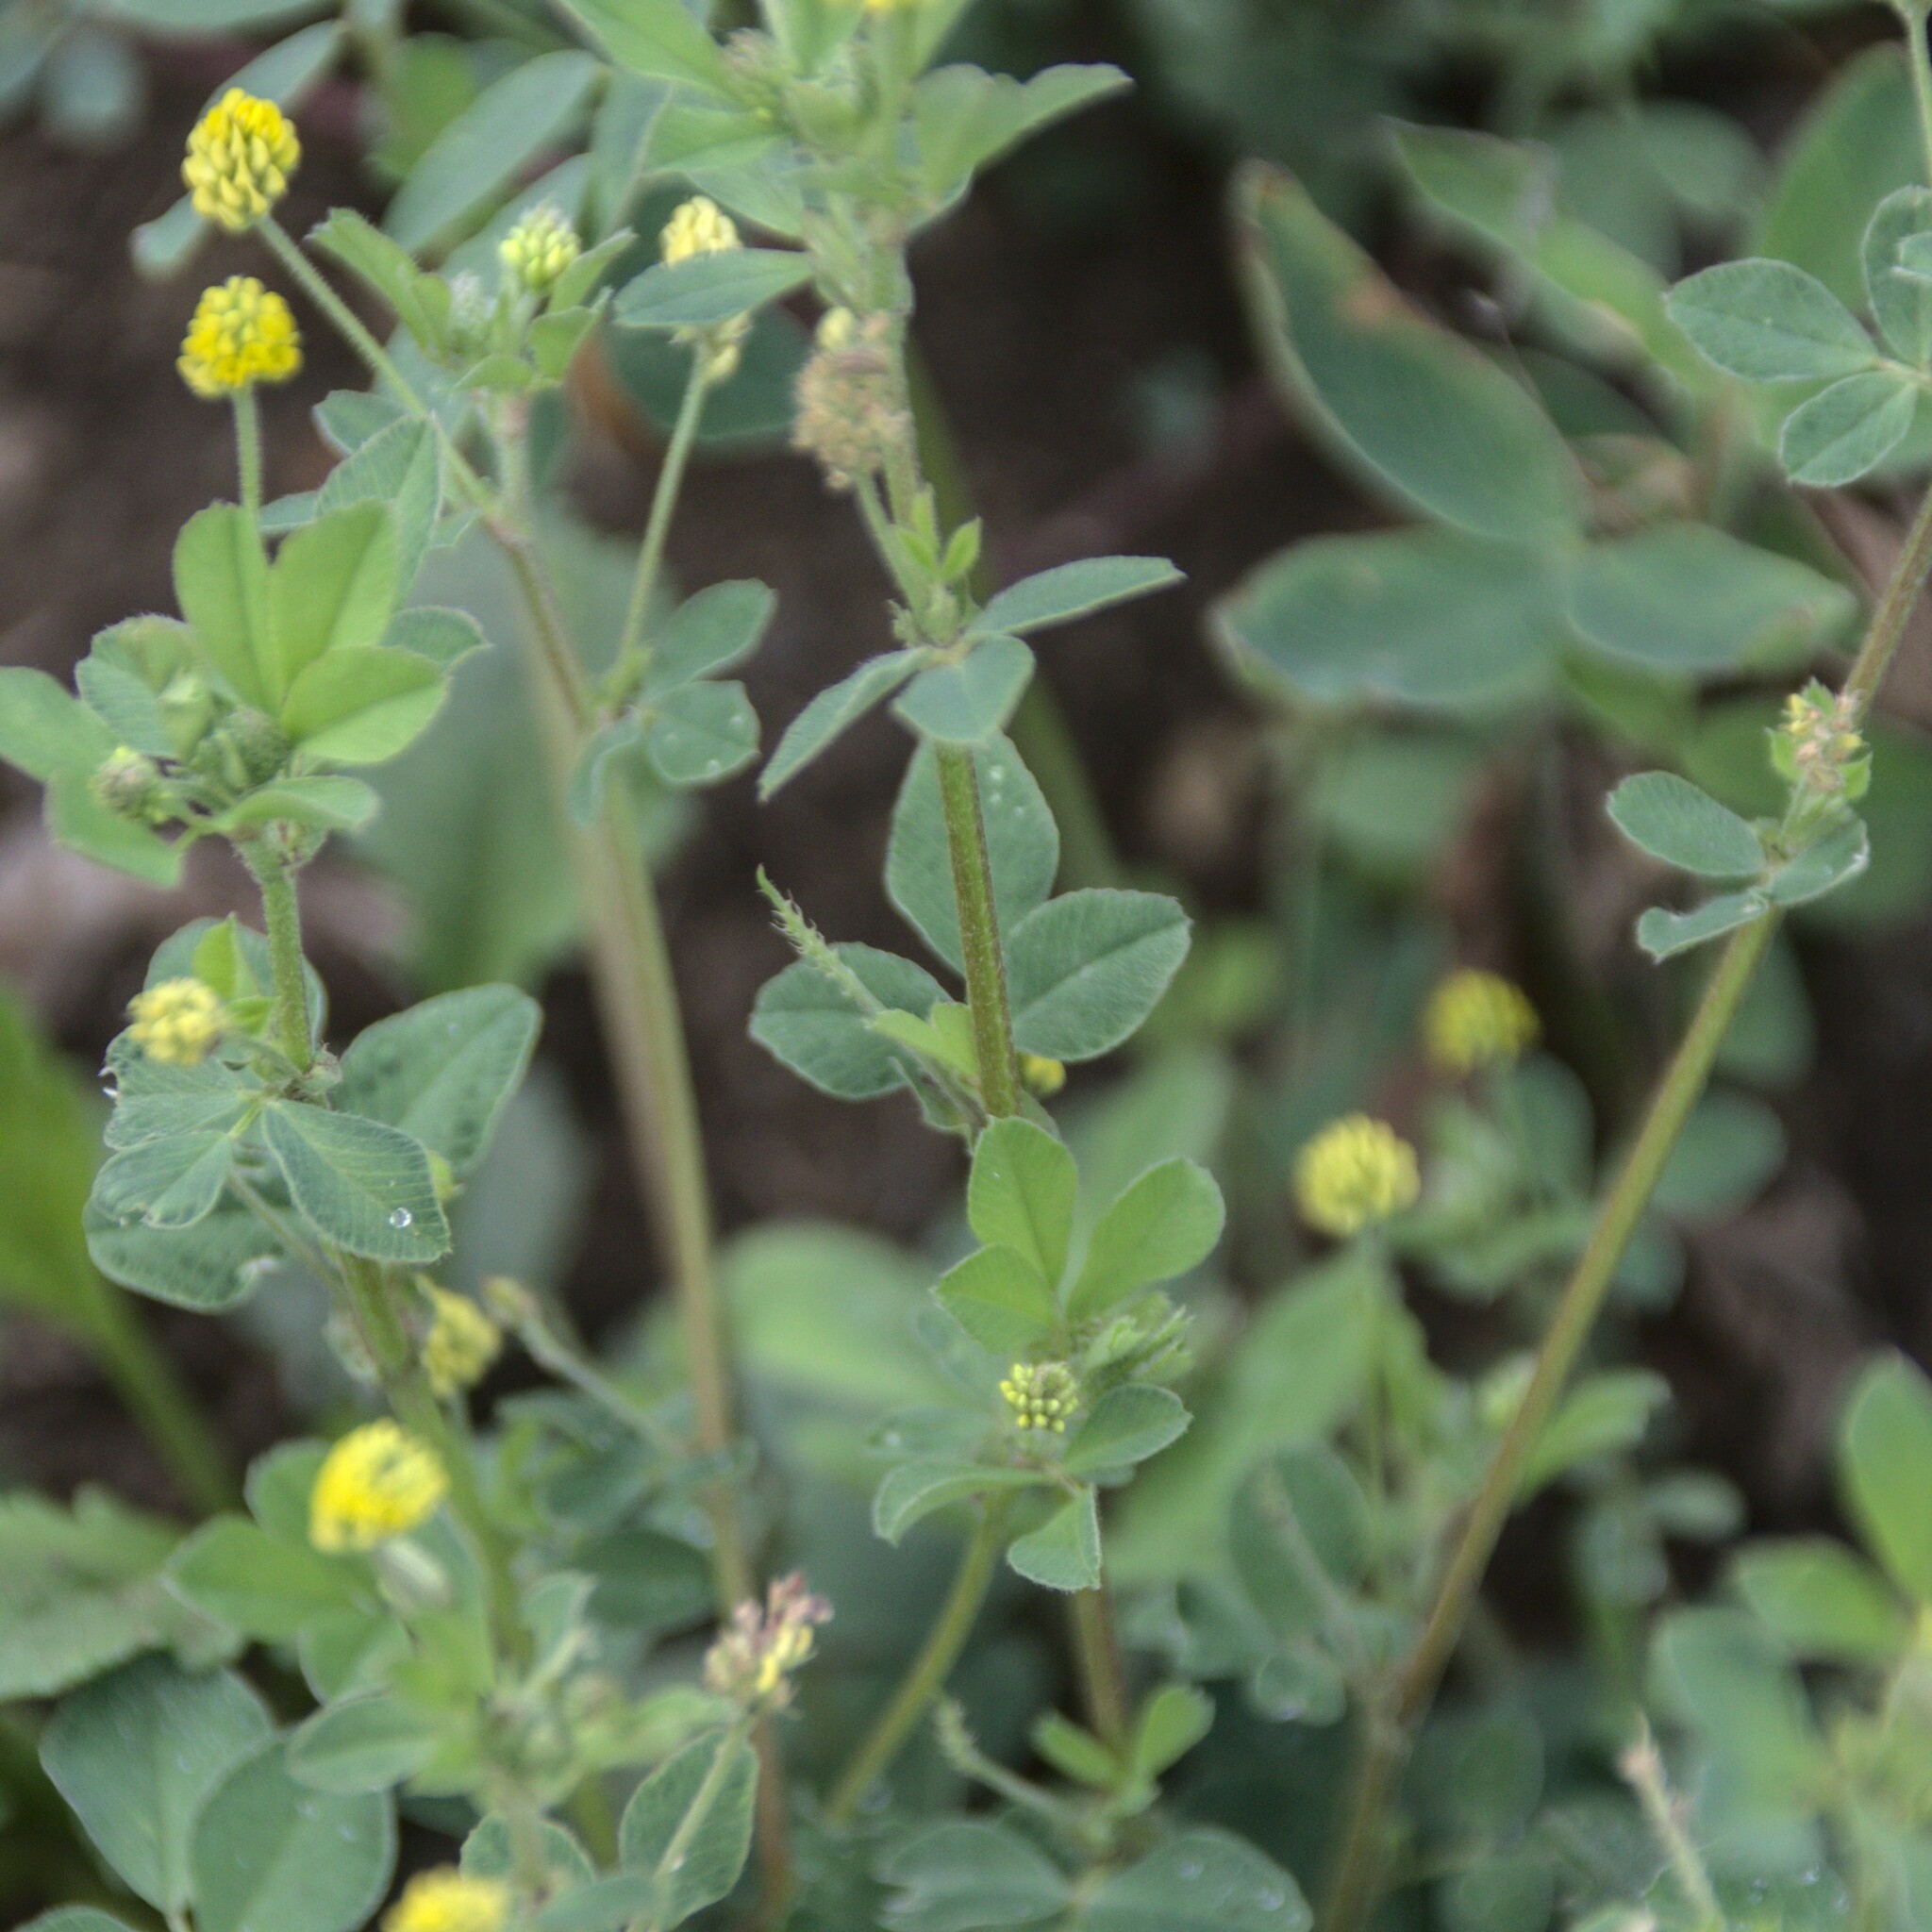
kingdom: Plantae
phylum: Tracheophyta
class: Magnoliopsida
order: Fabales
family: Fabaceae
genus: Medicago
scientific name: Medicago lupulina
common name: Black medick
